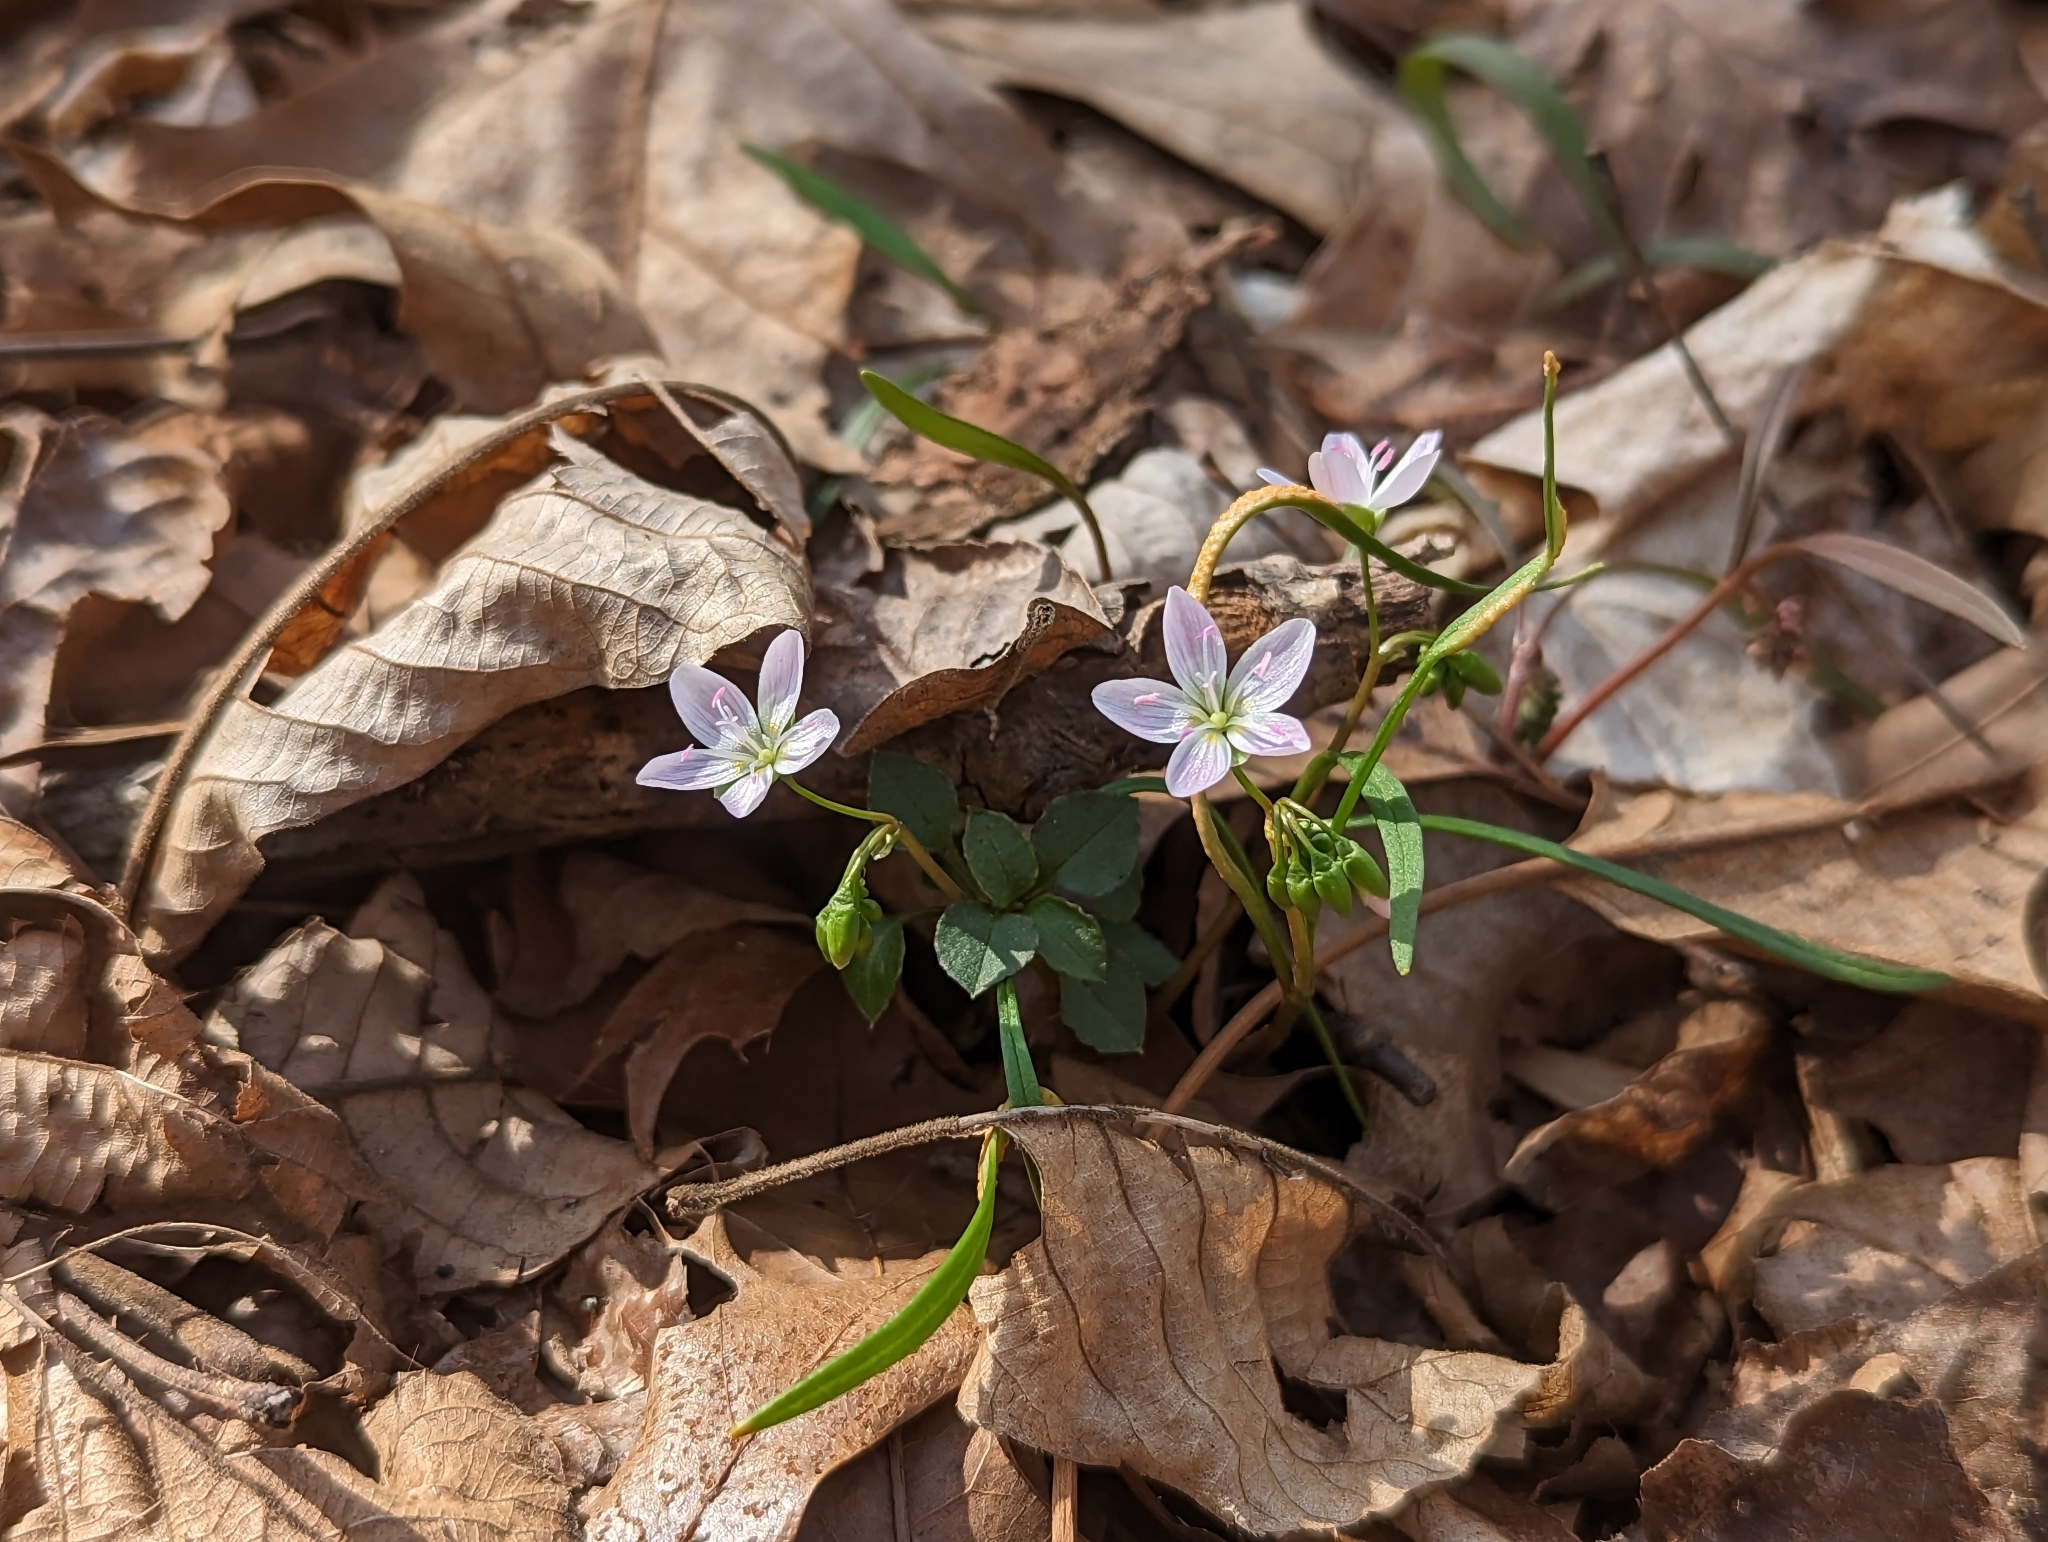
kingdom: Plantae
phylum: Tracheophyta
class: Magnoliopsida
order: Caryophyllales
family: Montiaceae
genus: Claytonia
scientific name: Claytonia virginica
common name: Virginia springbeauty
